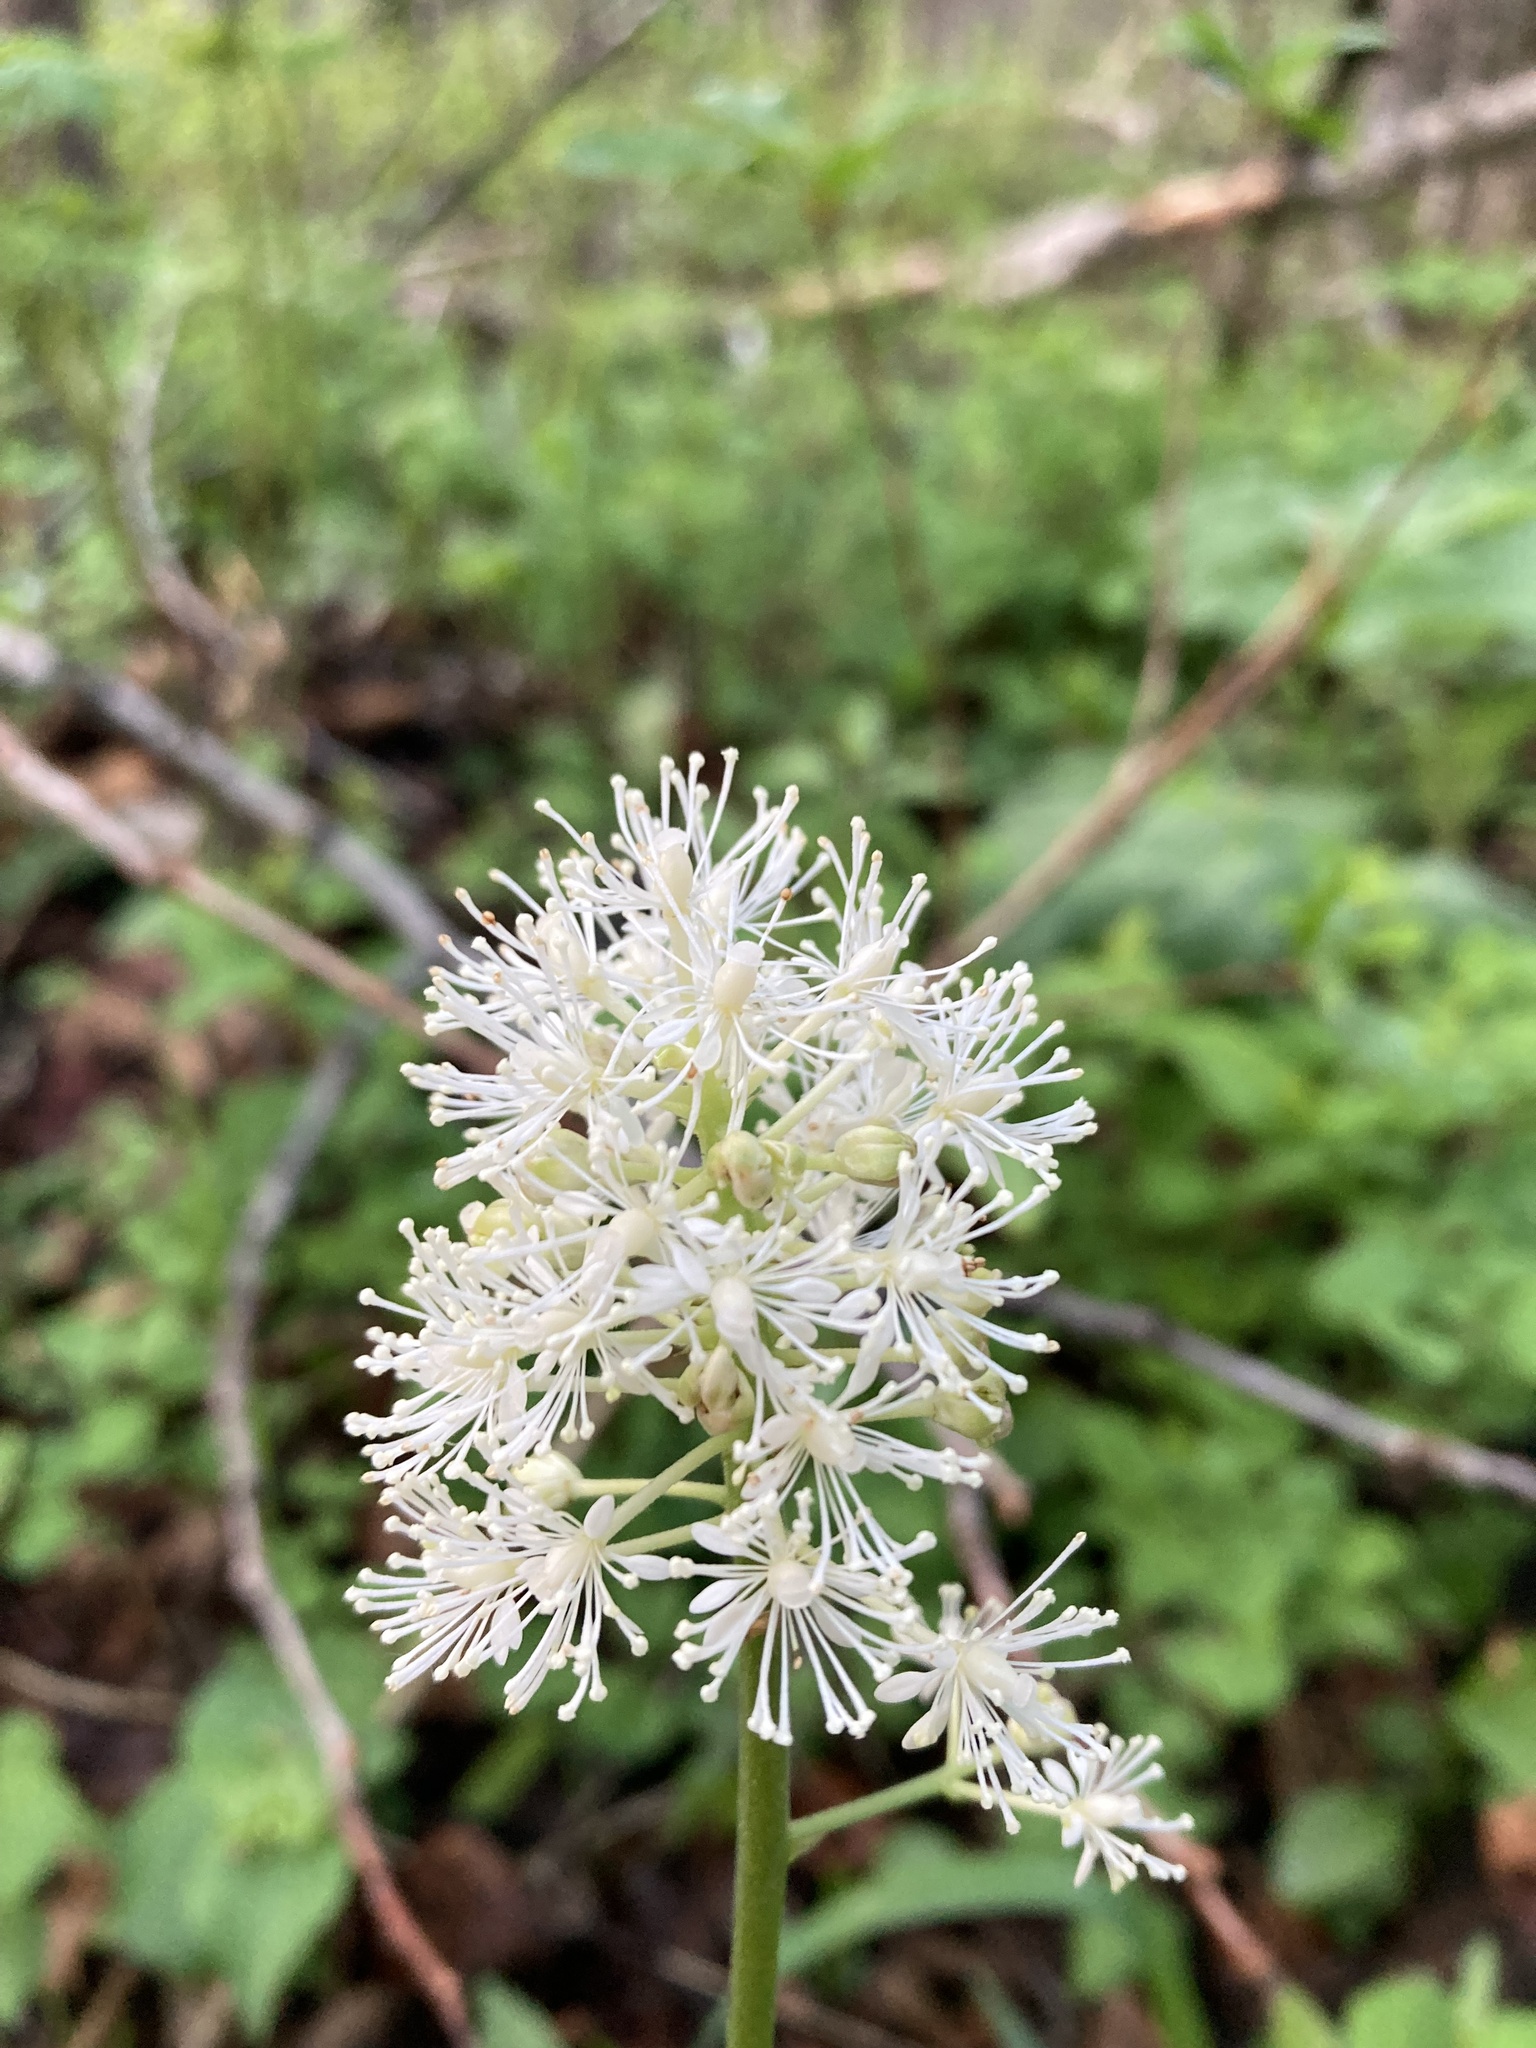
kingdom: Plantae
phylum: Tracheophyta
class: Magnoliopsida
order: Ranunculales
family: Ranunculaceae
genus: Actaea
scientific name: Actaea rubra
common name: Red baneberry
